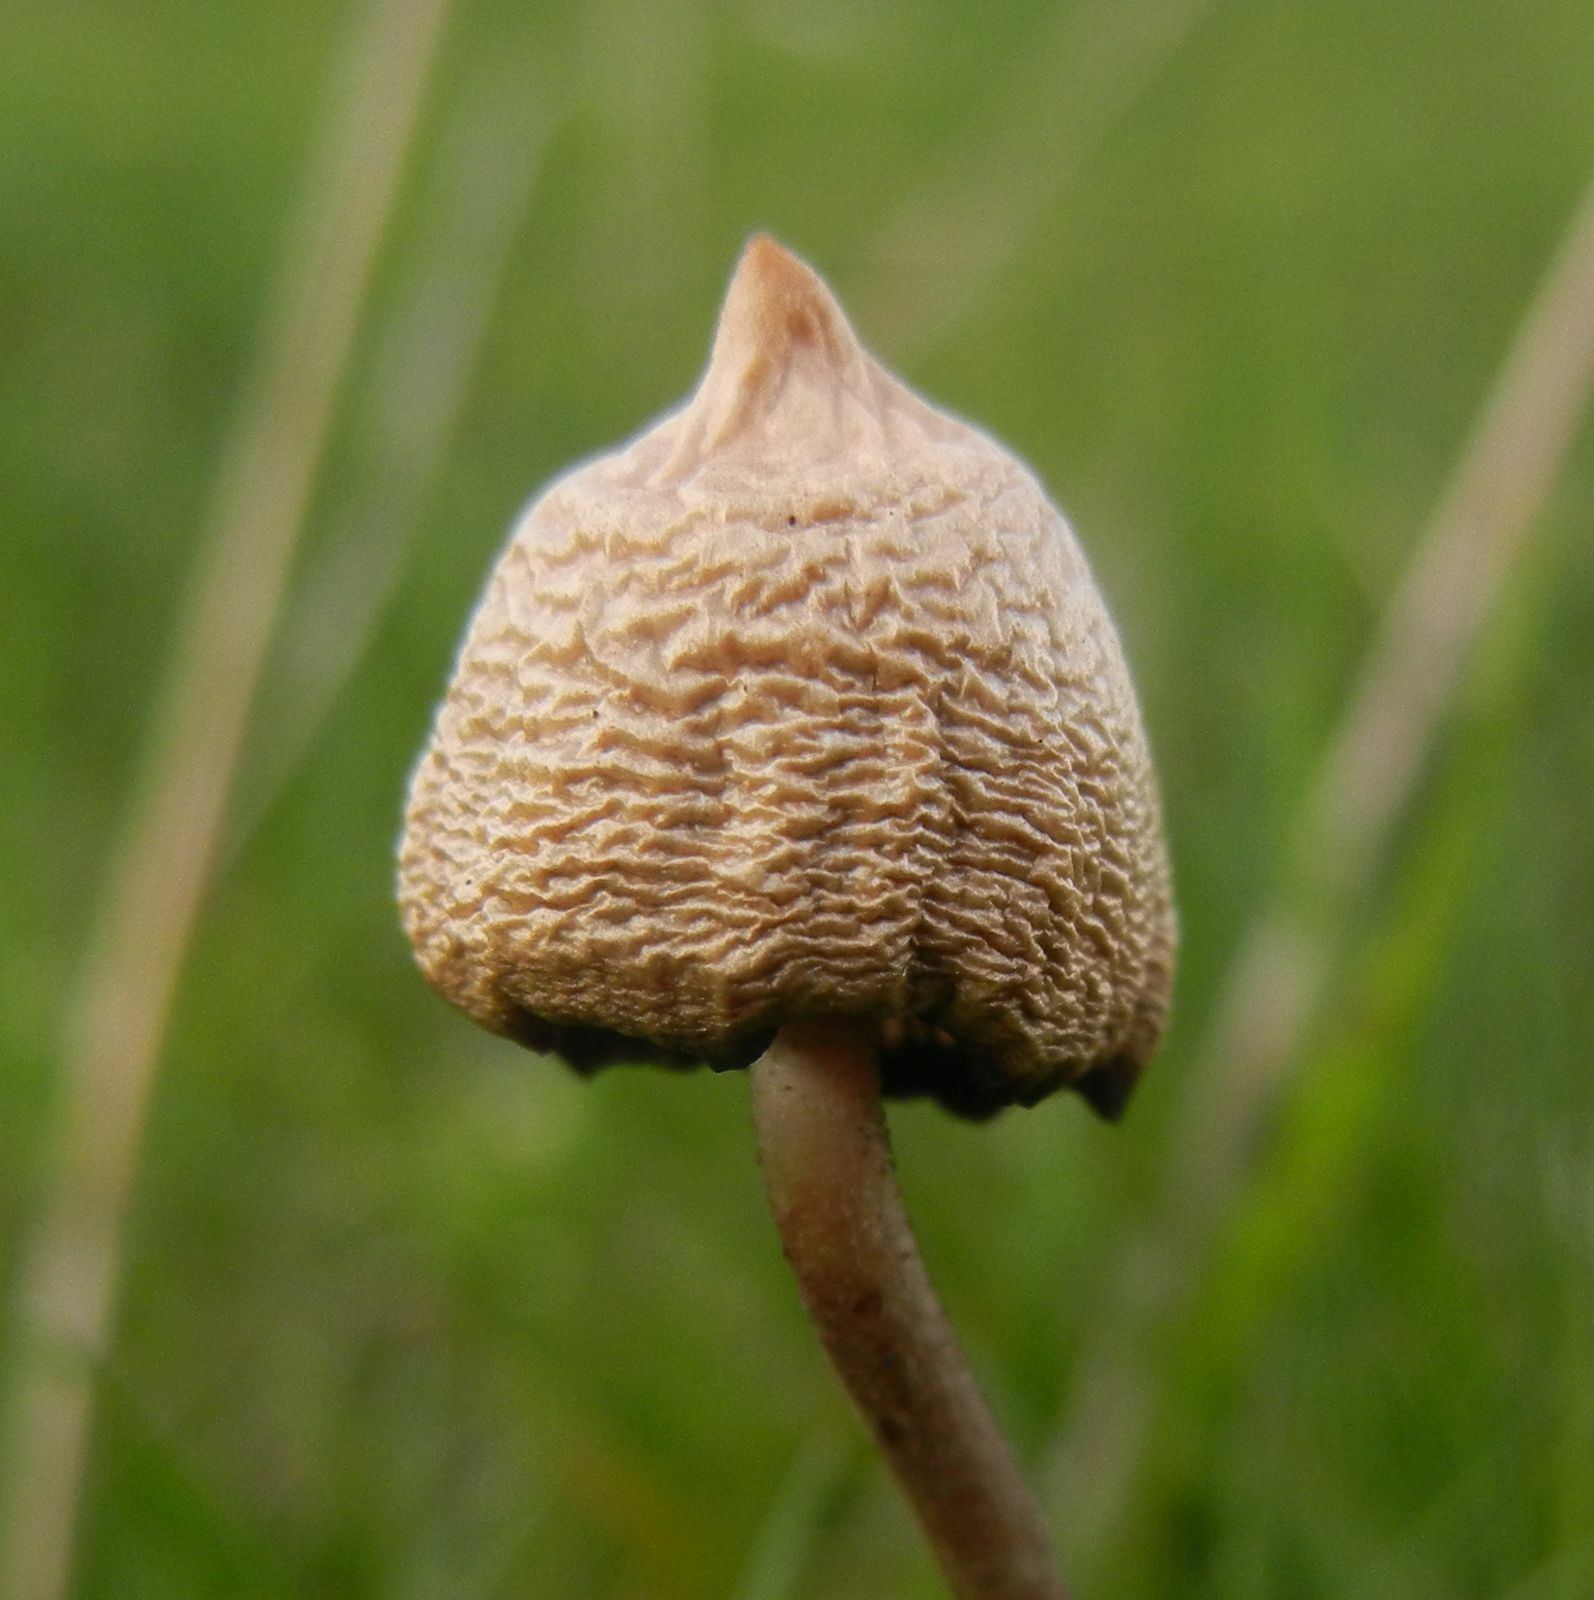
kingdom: Fungi
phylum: Basidiomycota
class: Agaricomycetes
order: Agaricales
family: Hymenogastraceae
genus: Psilocybe
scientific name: Psilocybe semilanceata
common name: Liberty cap
